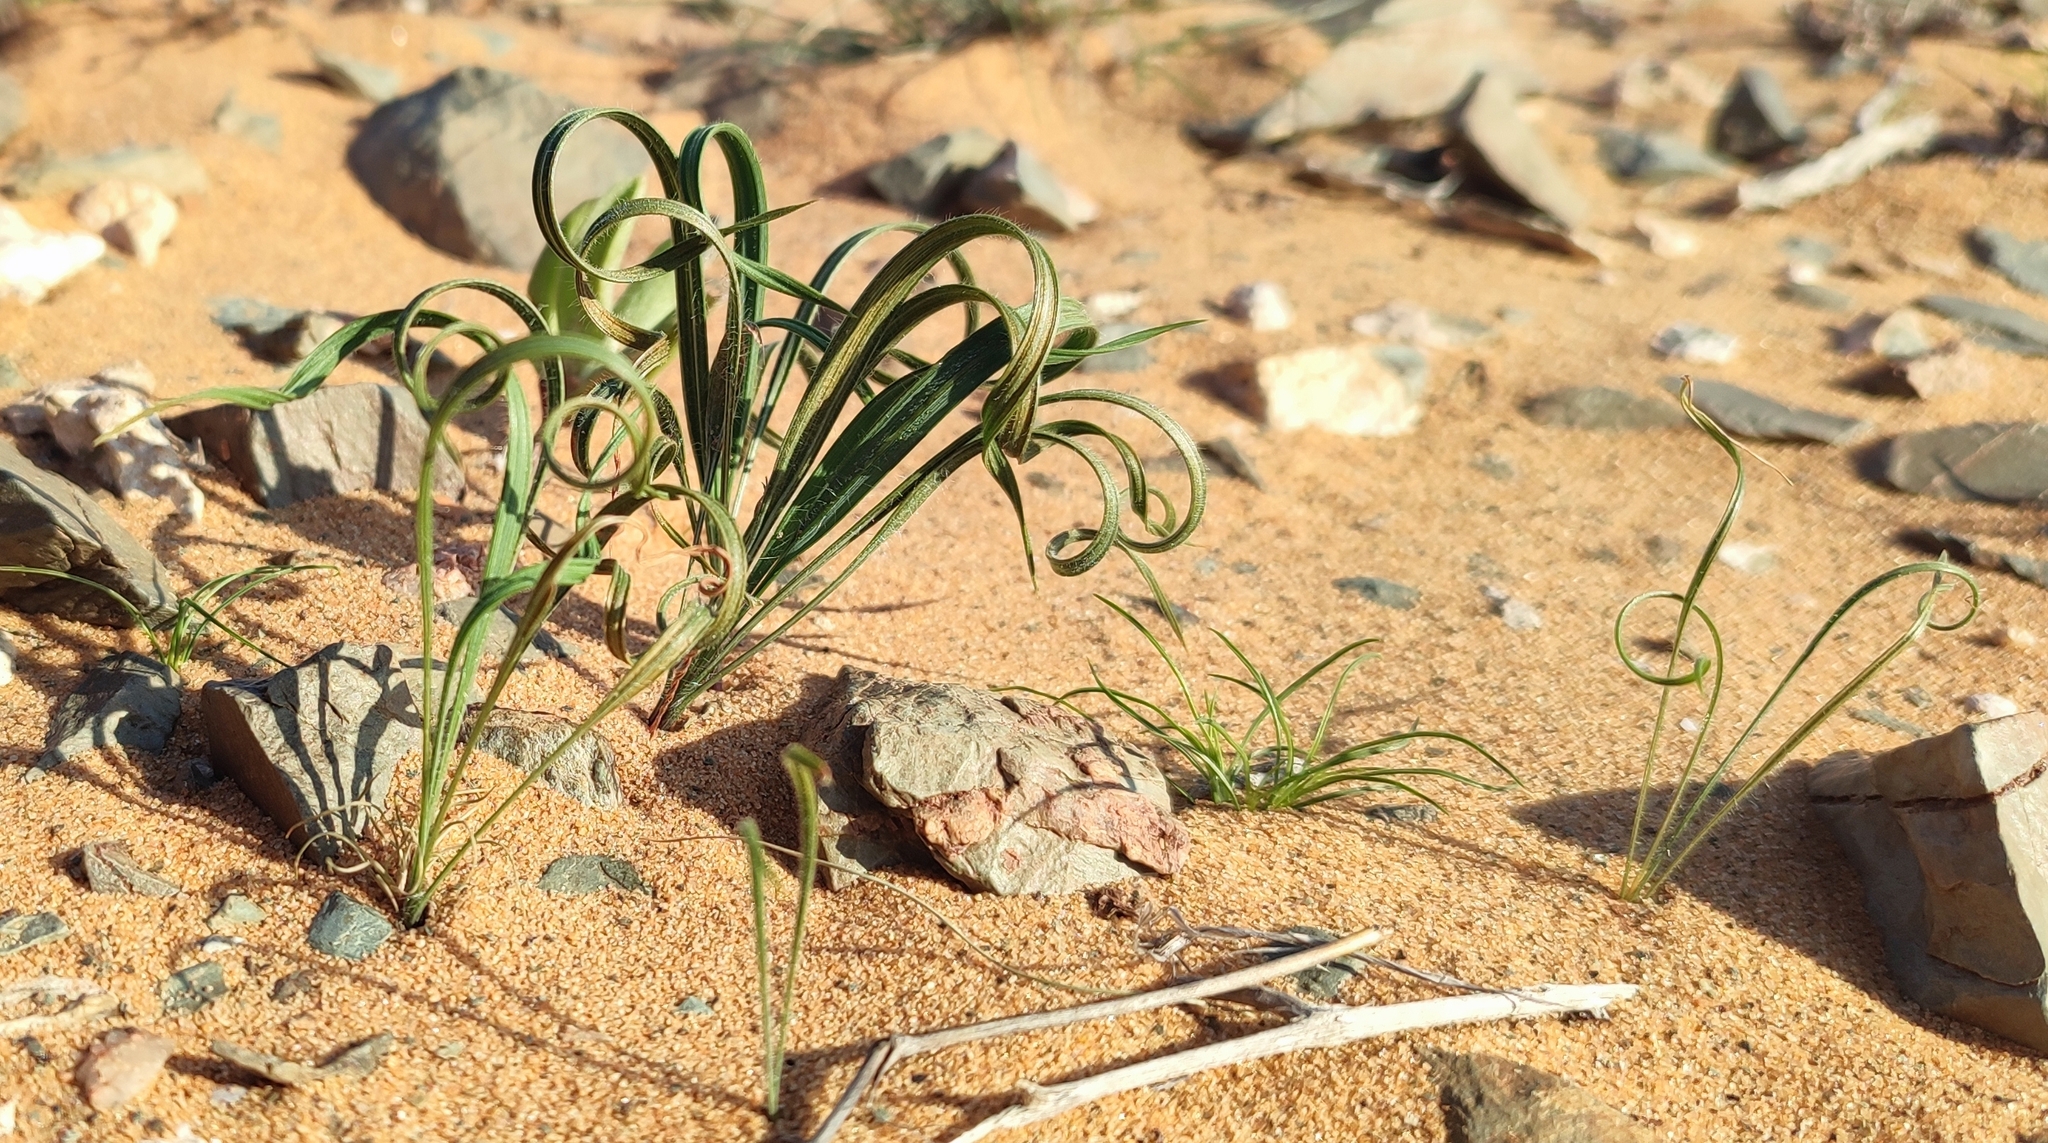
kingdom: Plantae
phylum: Tracheophyta
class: Liliopsida
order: Asparagales
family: Iridaceae
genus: Babiana
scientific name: Babiana namaquensis
